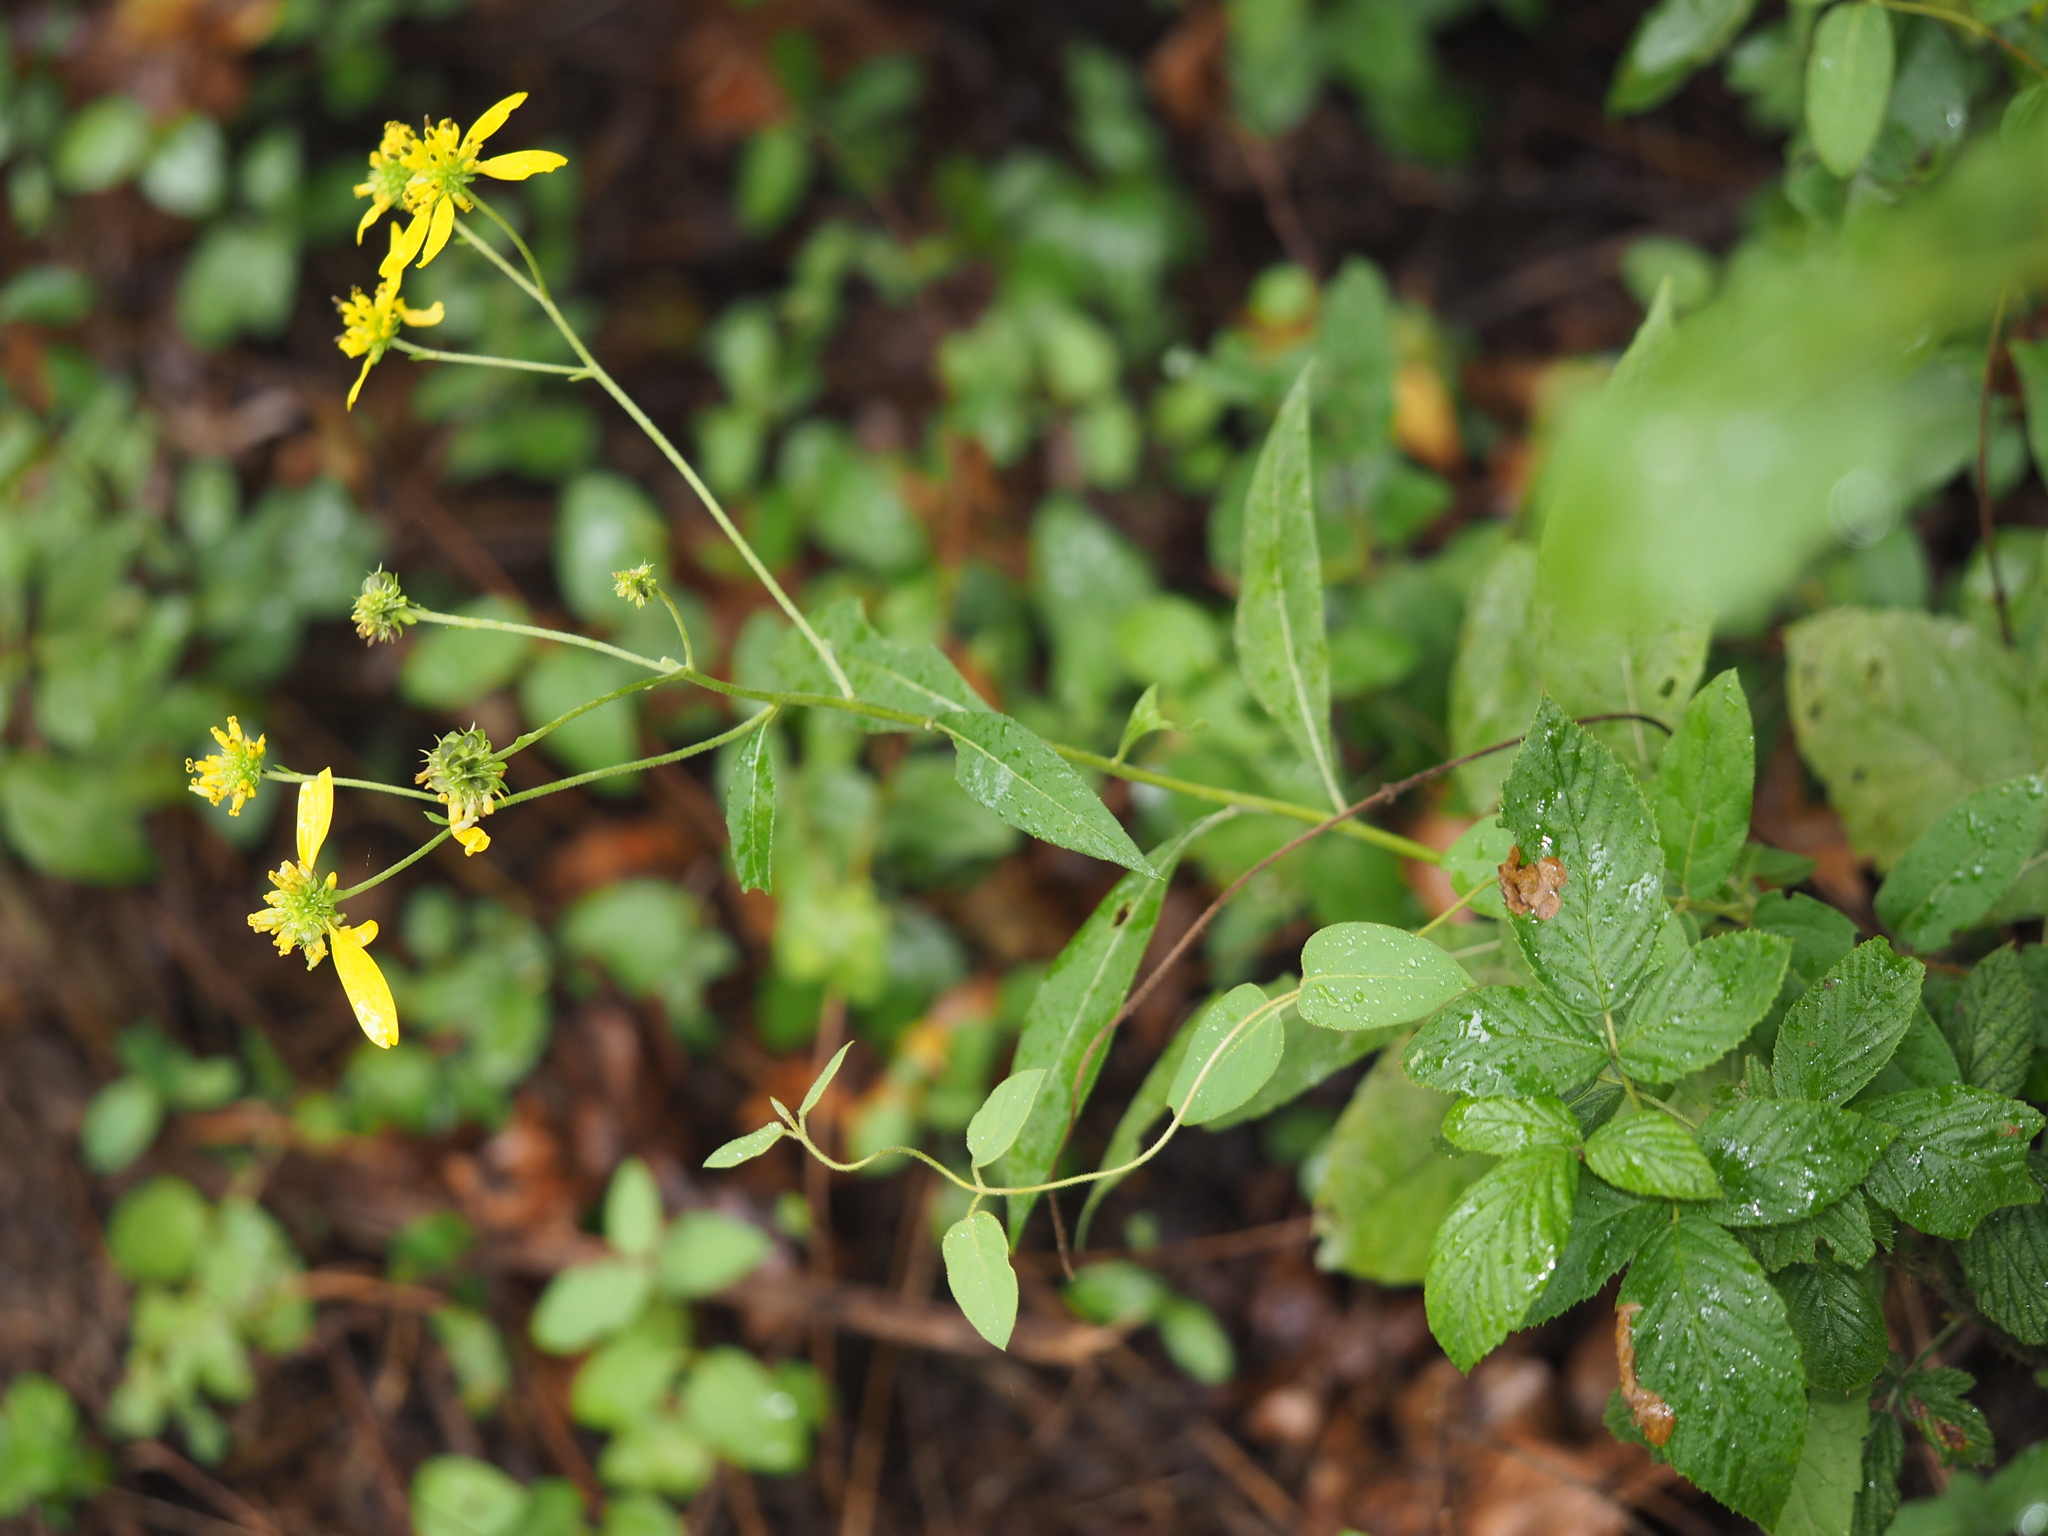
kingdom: Plantae
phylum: Tracheophyta
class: Magnoliopsida
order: Asterales
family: Asteraceae
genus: Verbesina
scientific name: Verbesina alternifolia
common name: Wingstem
